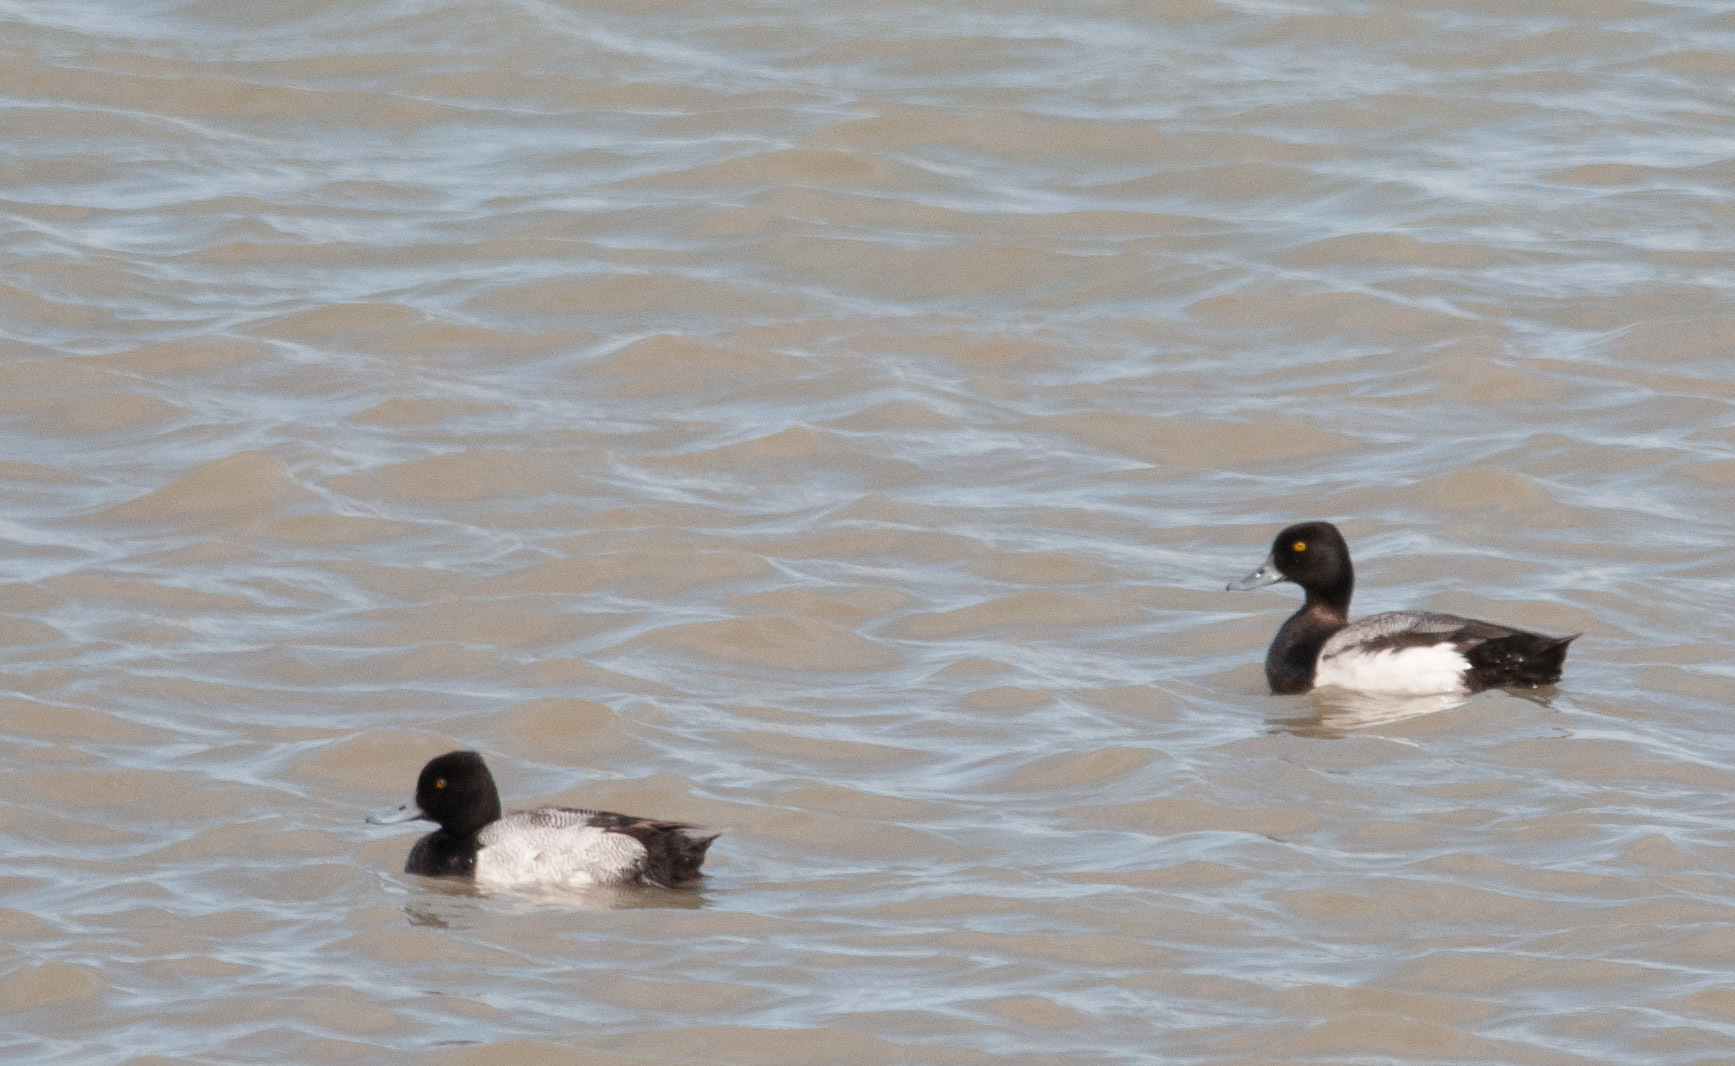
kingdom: Animalia
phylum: Chordata
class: Aves
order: Anseriformes
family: Anatidae
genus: Aythya
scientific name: Aythya affinis
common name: Lesser scaup
